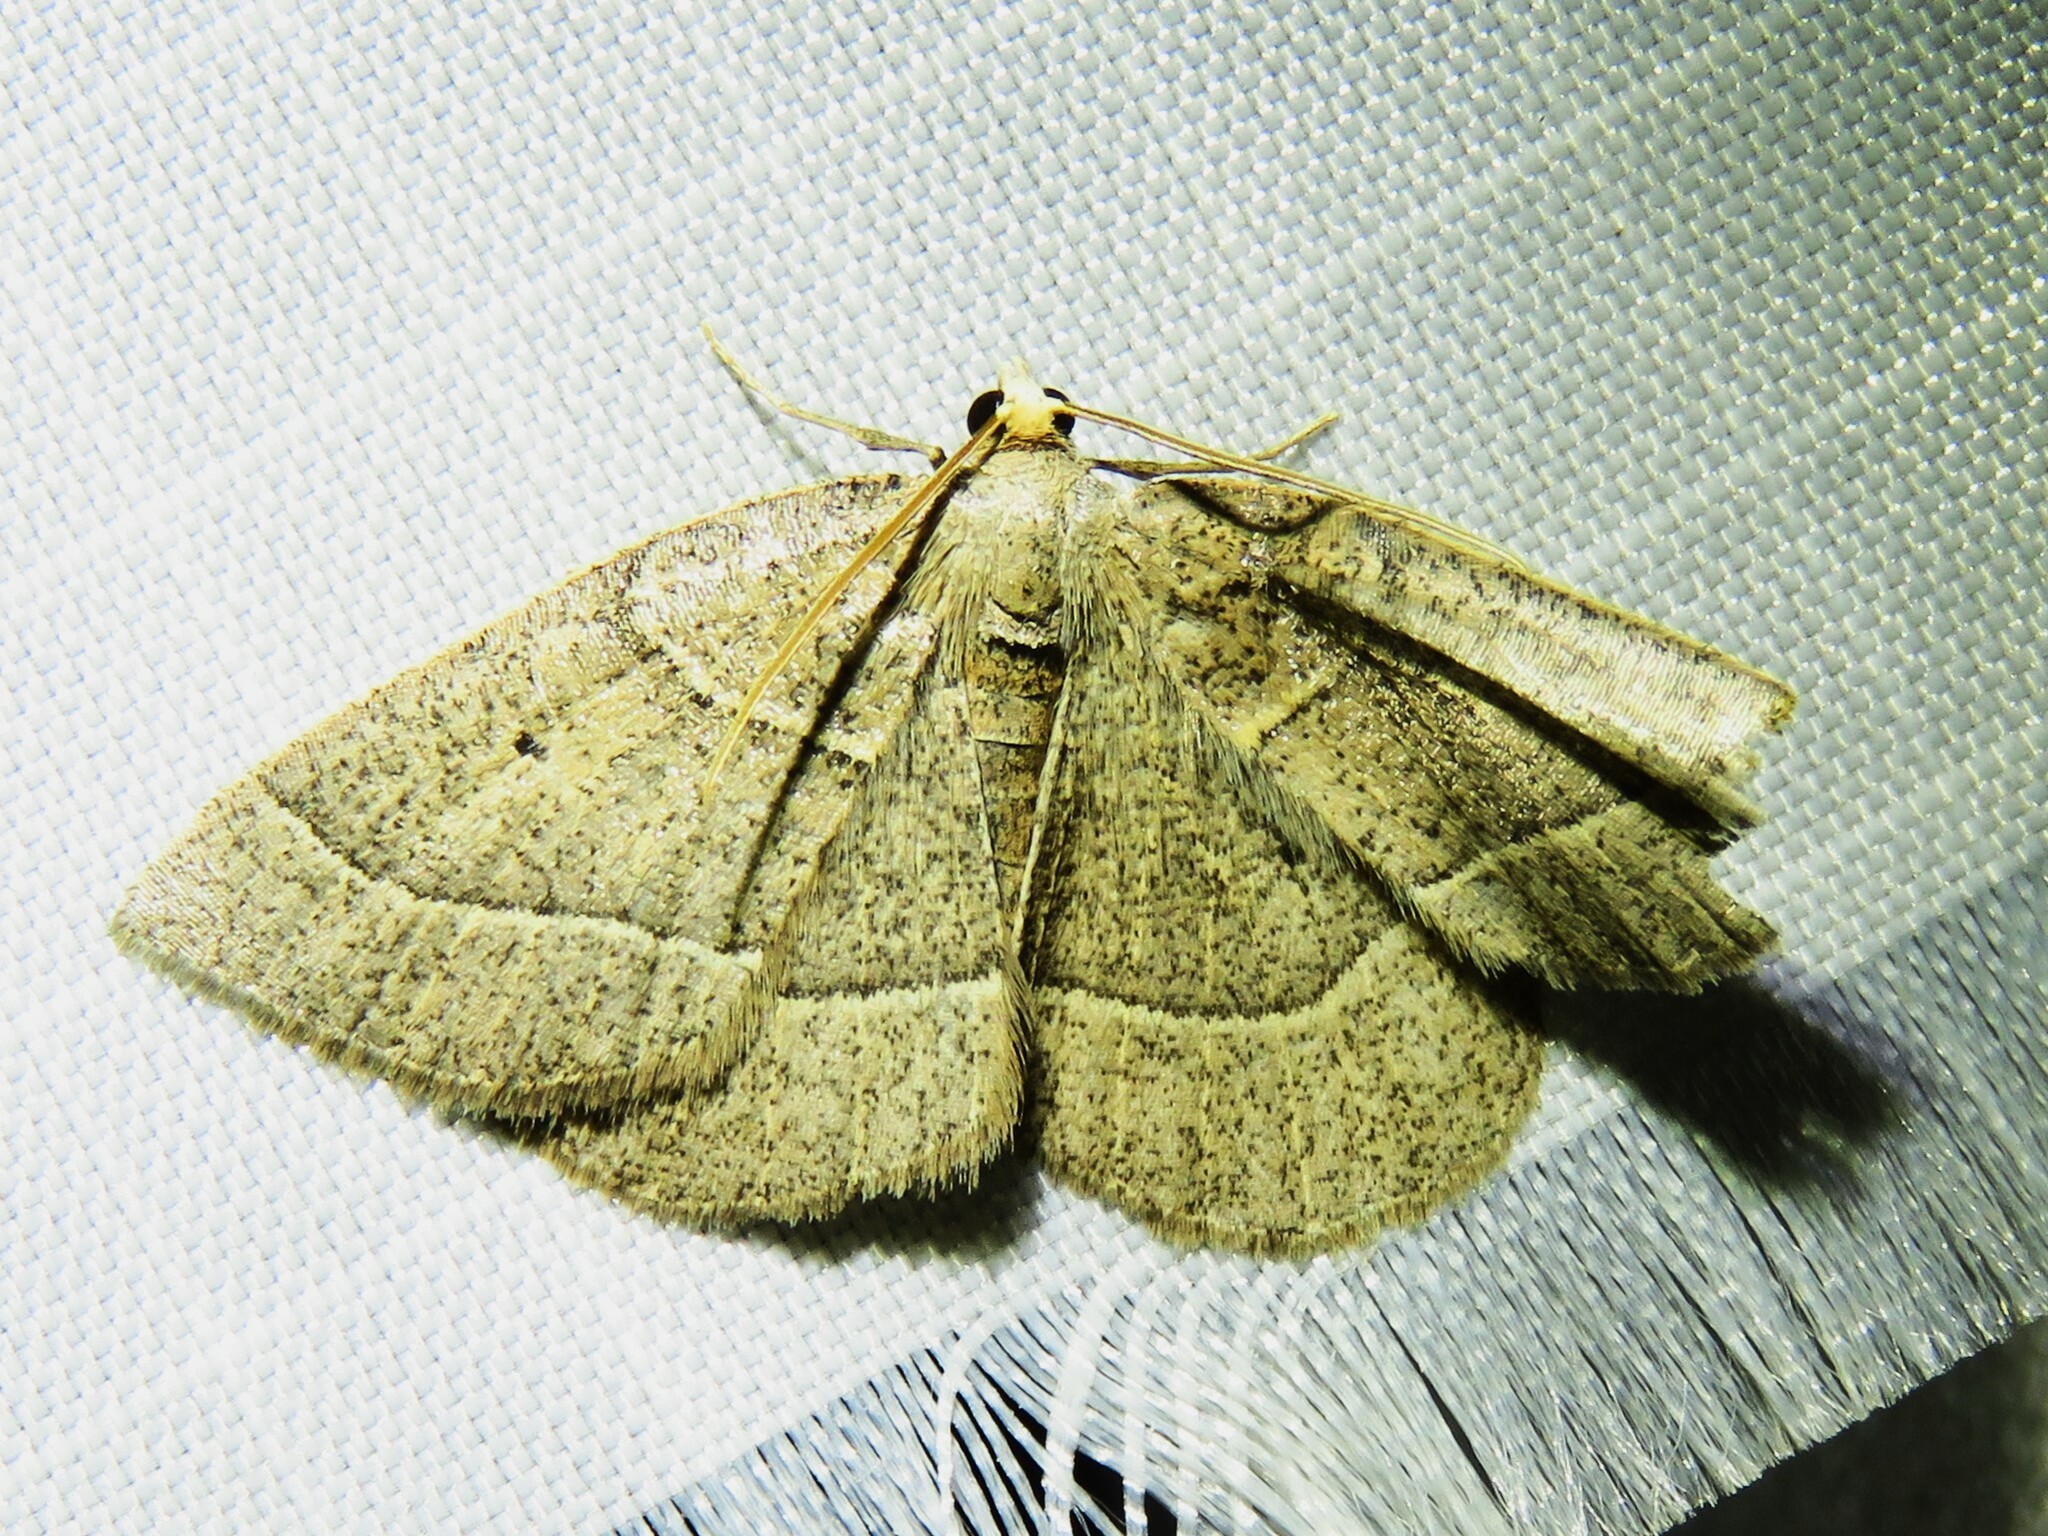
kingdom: Animalia
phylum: Arthropoda
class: Insecta
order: Lepidoptera
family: Geometridae
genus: Episemasia
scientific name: Episemasia cervinaria
